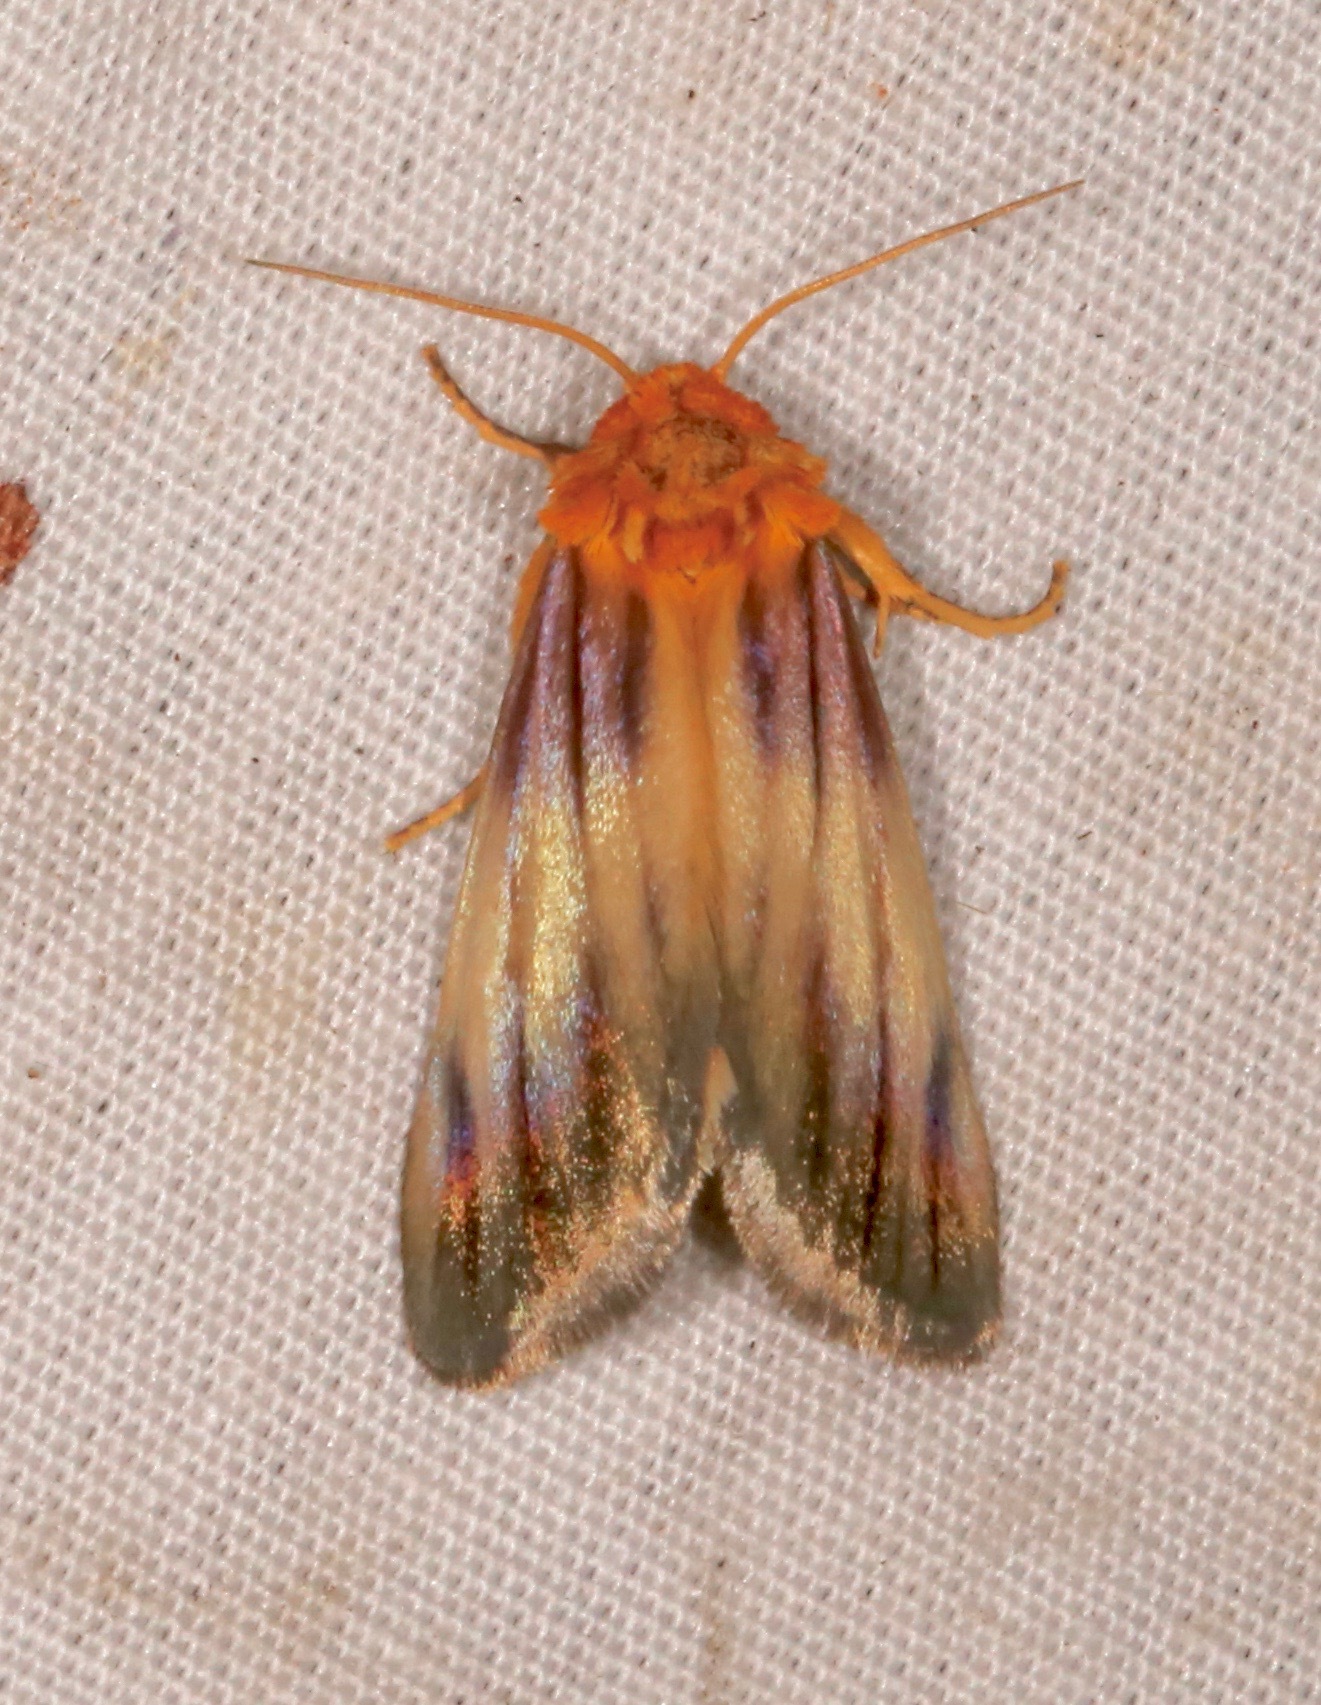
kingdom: Animalia
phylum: Arthropoda
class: Insecta
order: Lepidoptera
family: Noctuidae
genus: Antaplaga
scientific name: Antaplaga plesioglauca
